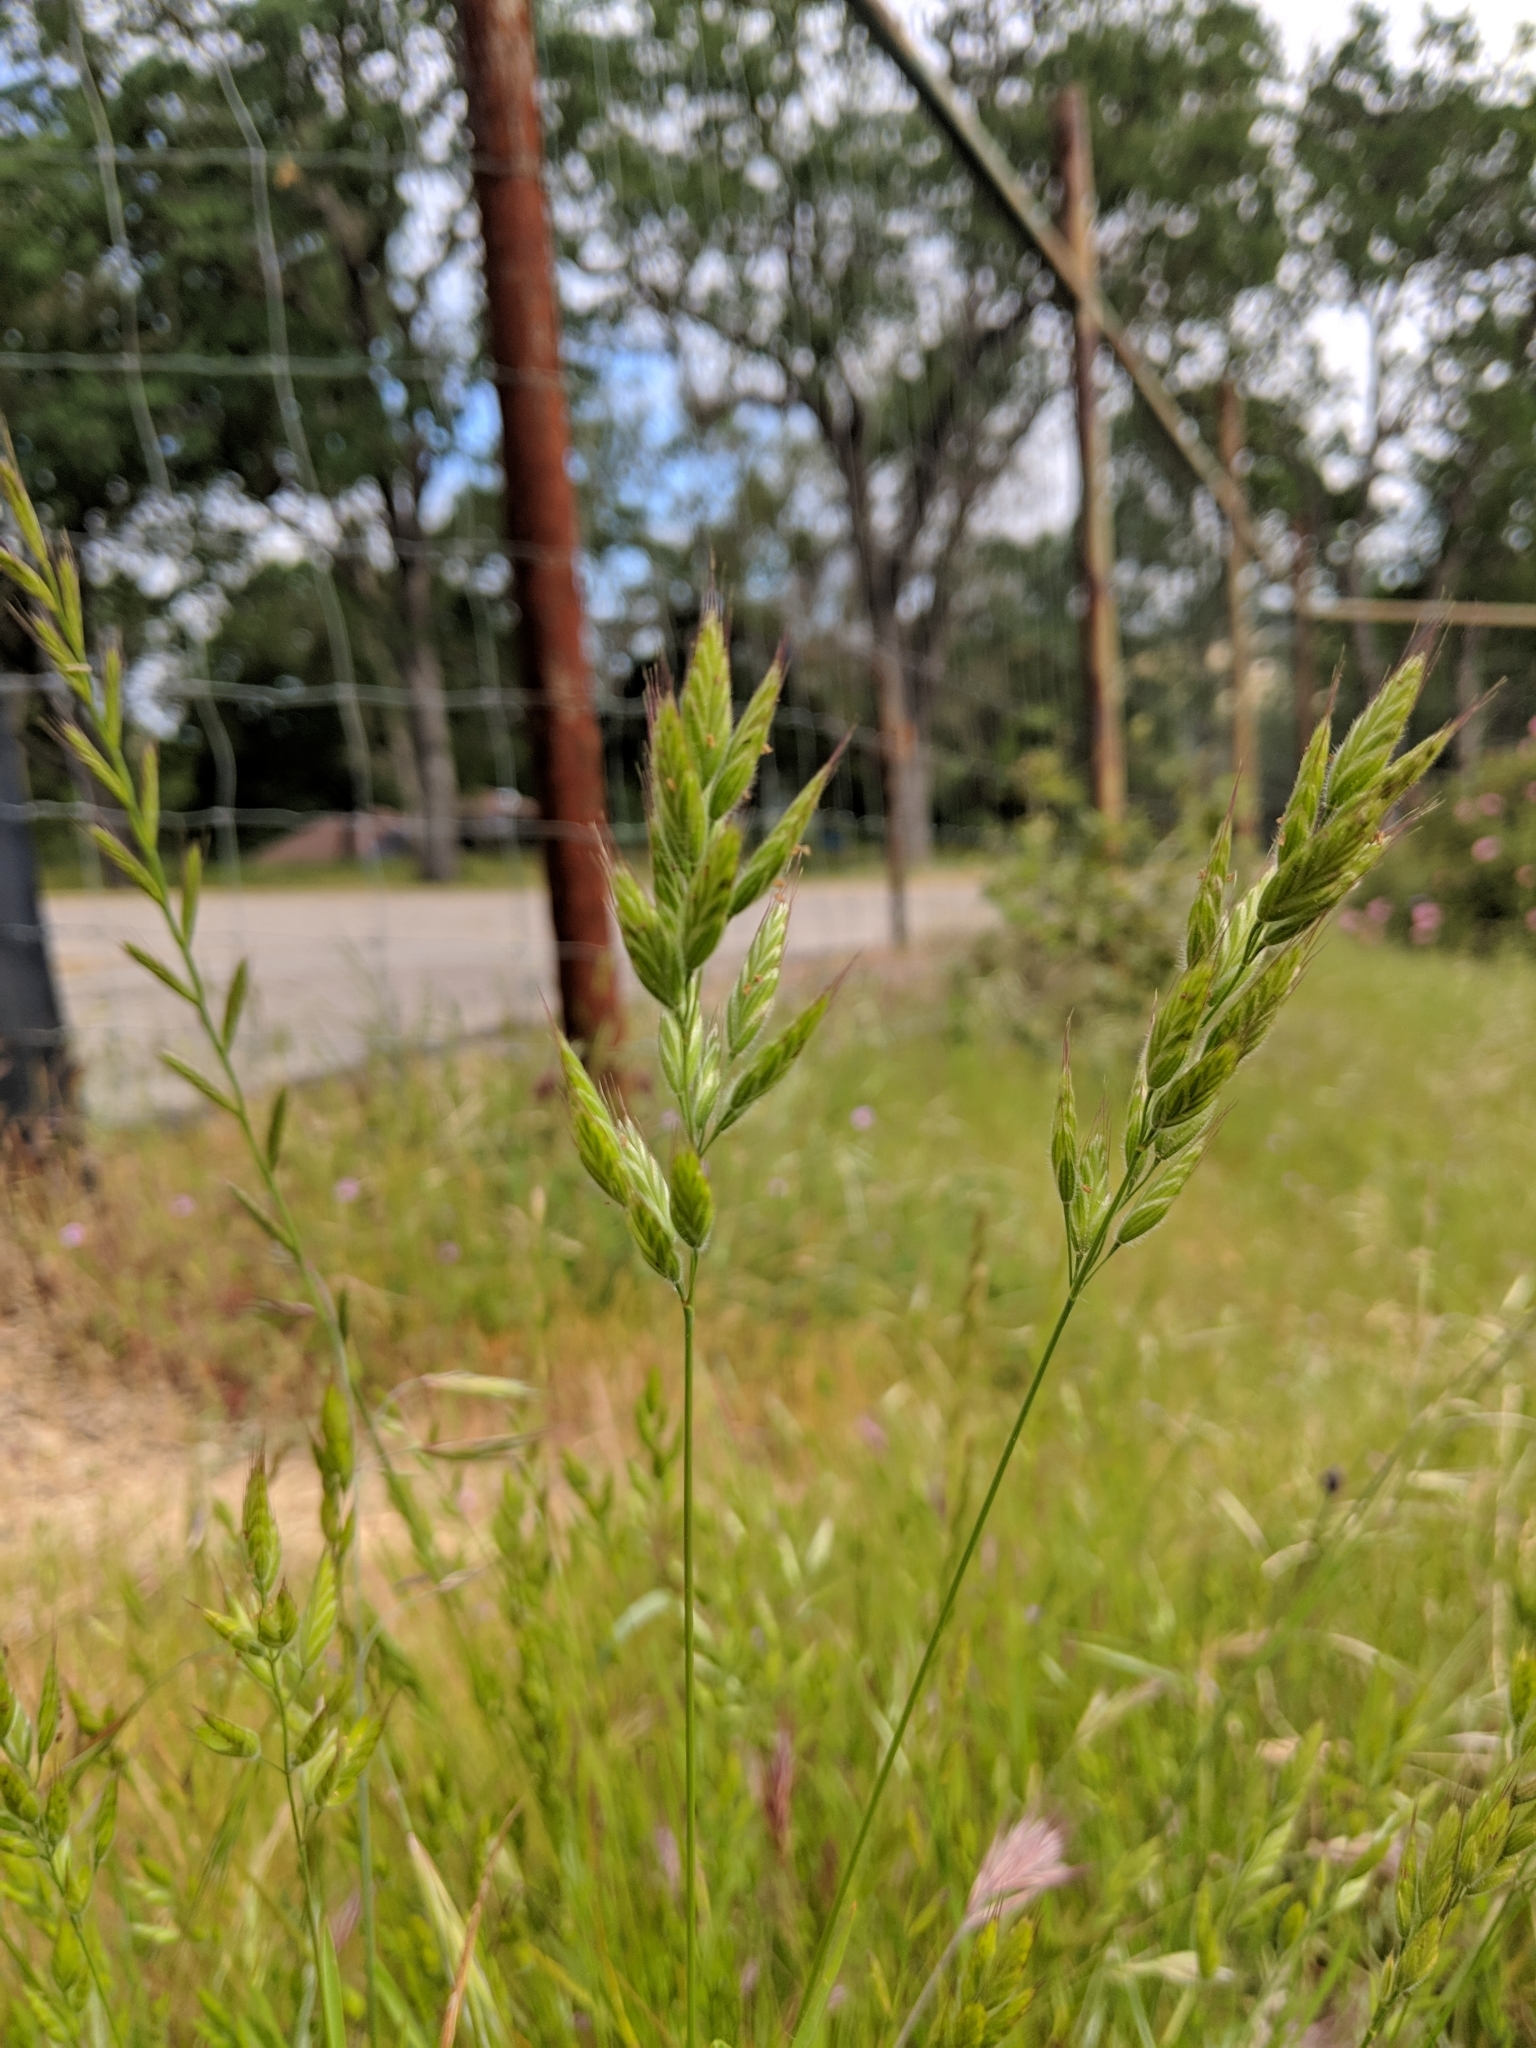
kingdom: Plantae
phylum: Tracheophyta
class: Liliopsida
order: Poales
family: Poaceae
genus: Bromus
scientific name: Bromus hordeaceus
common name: Soft brome
